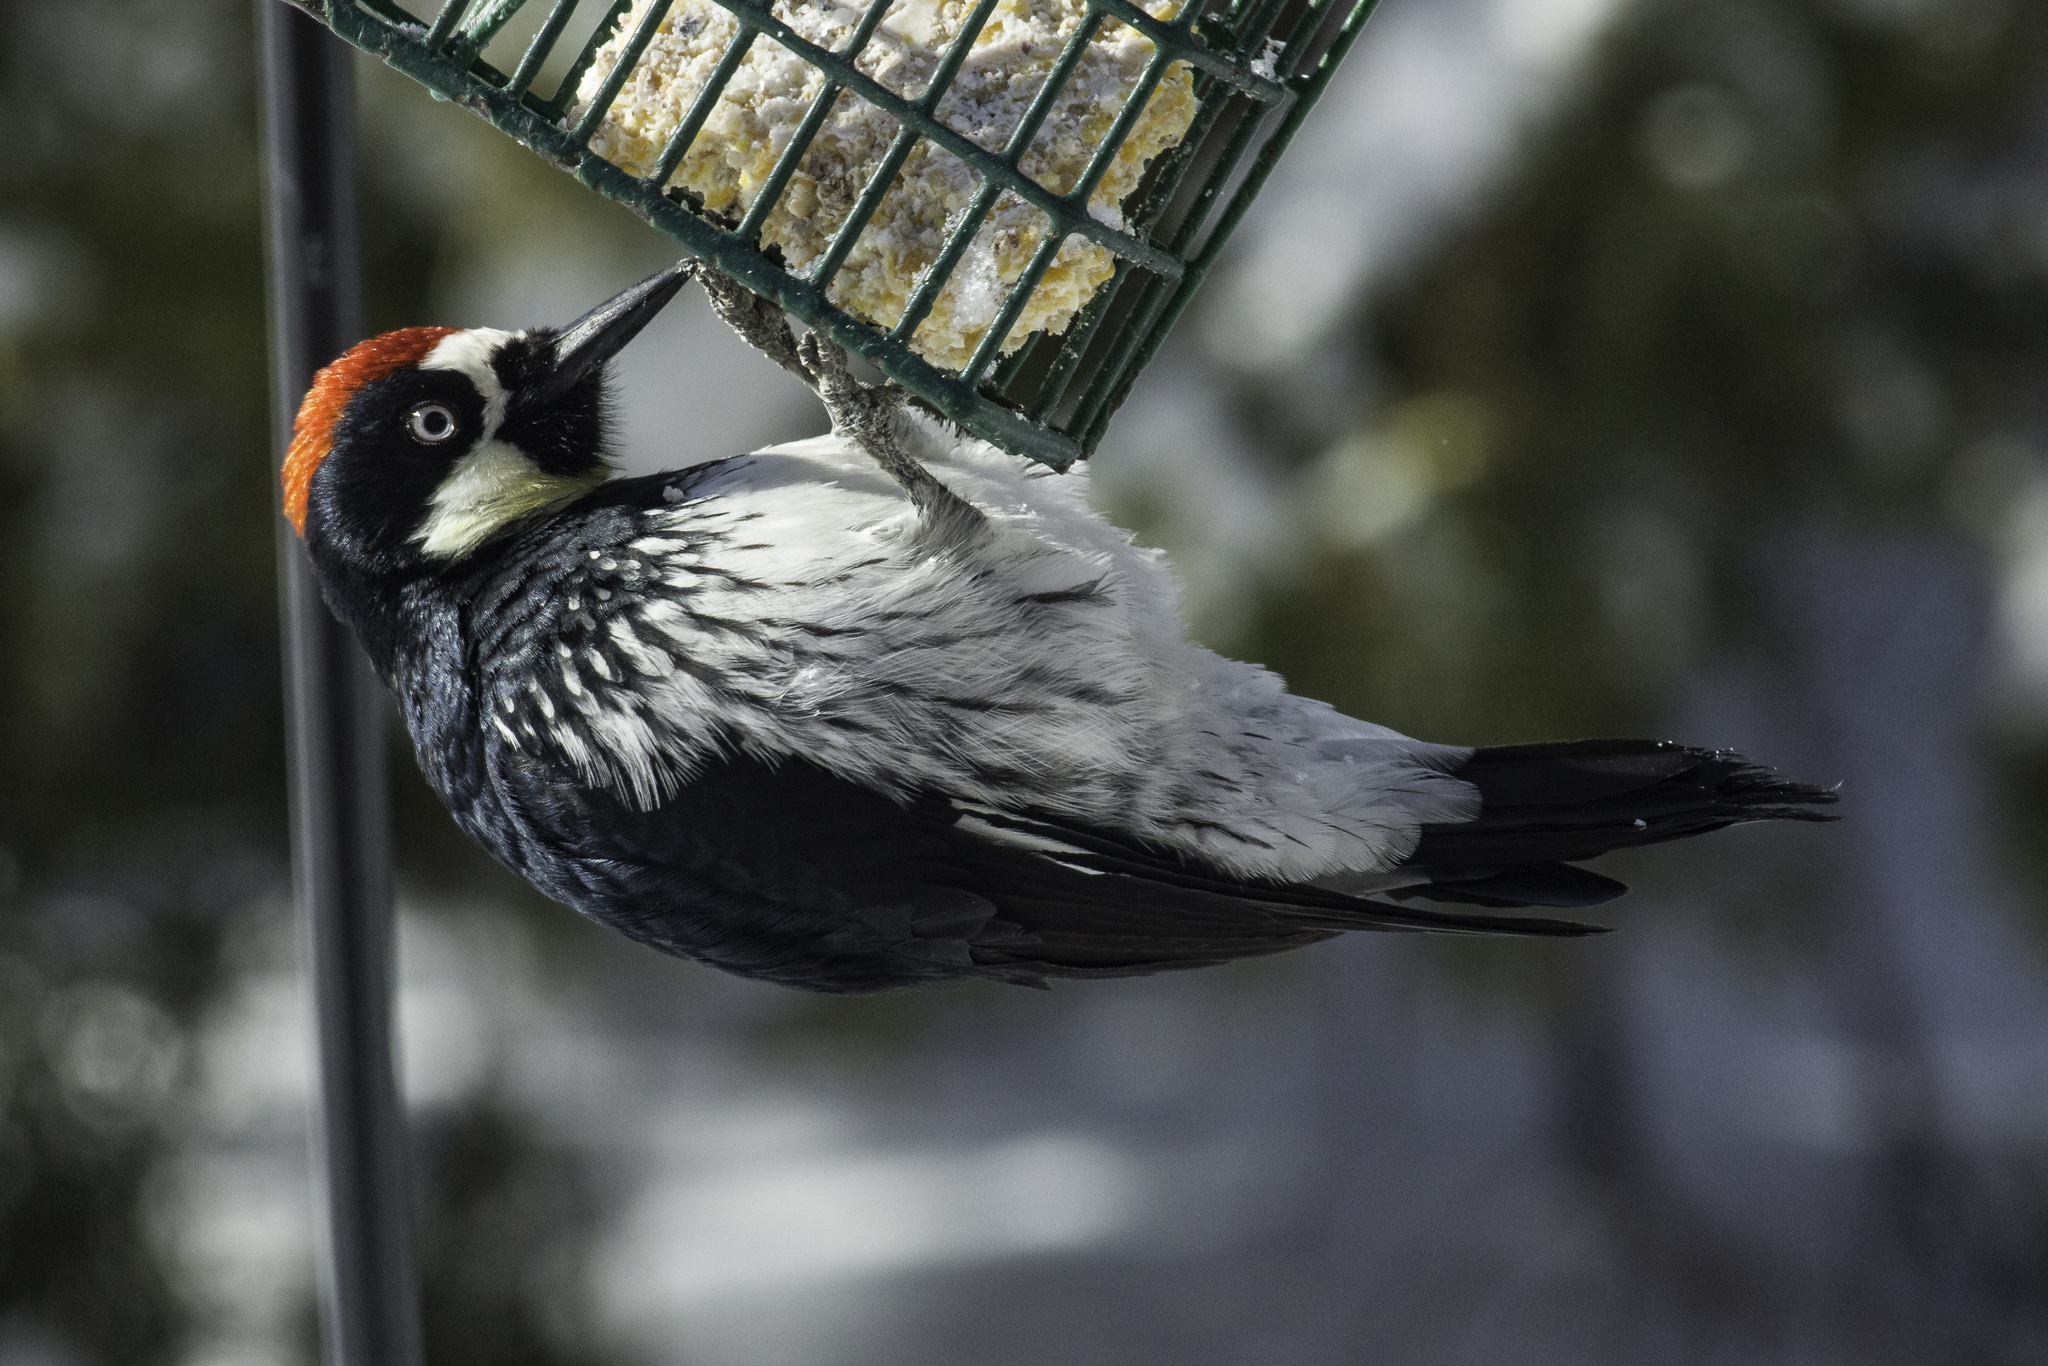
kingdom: Animalia
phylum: Chordata
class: Aves
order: Piciformes
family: Picidae
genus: Melanerpes
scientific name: Melanerpes formicivorus
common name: Acorn woodpecker
